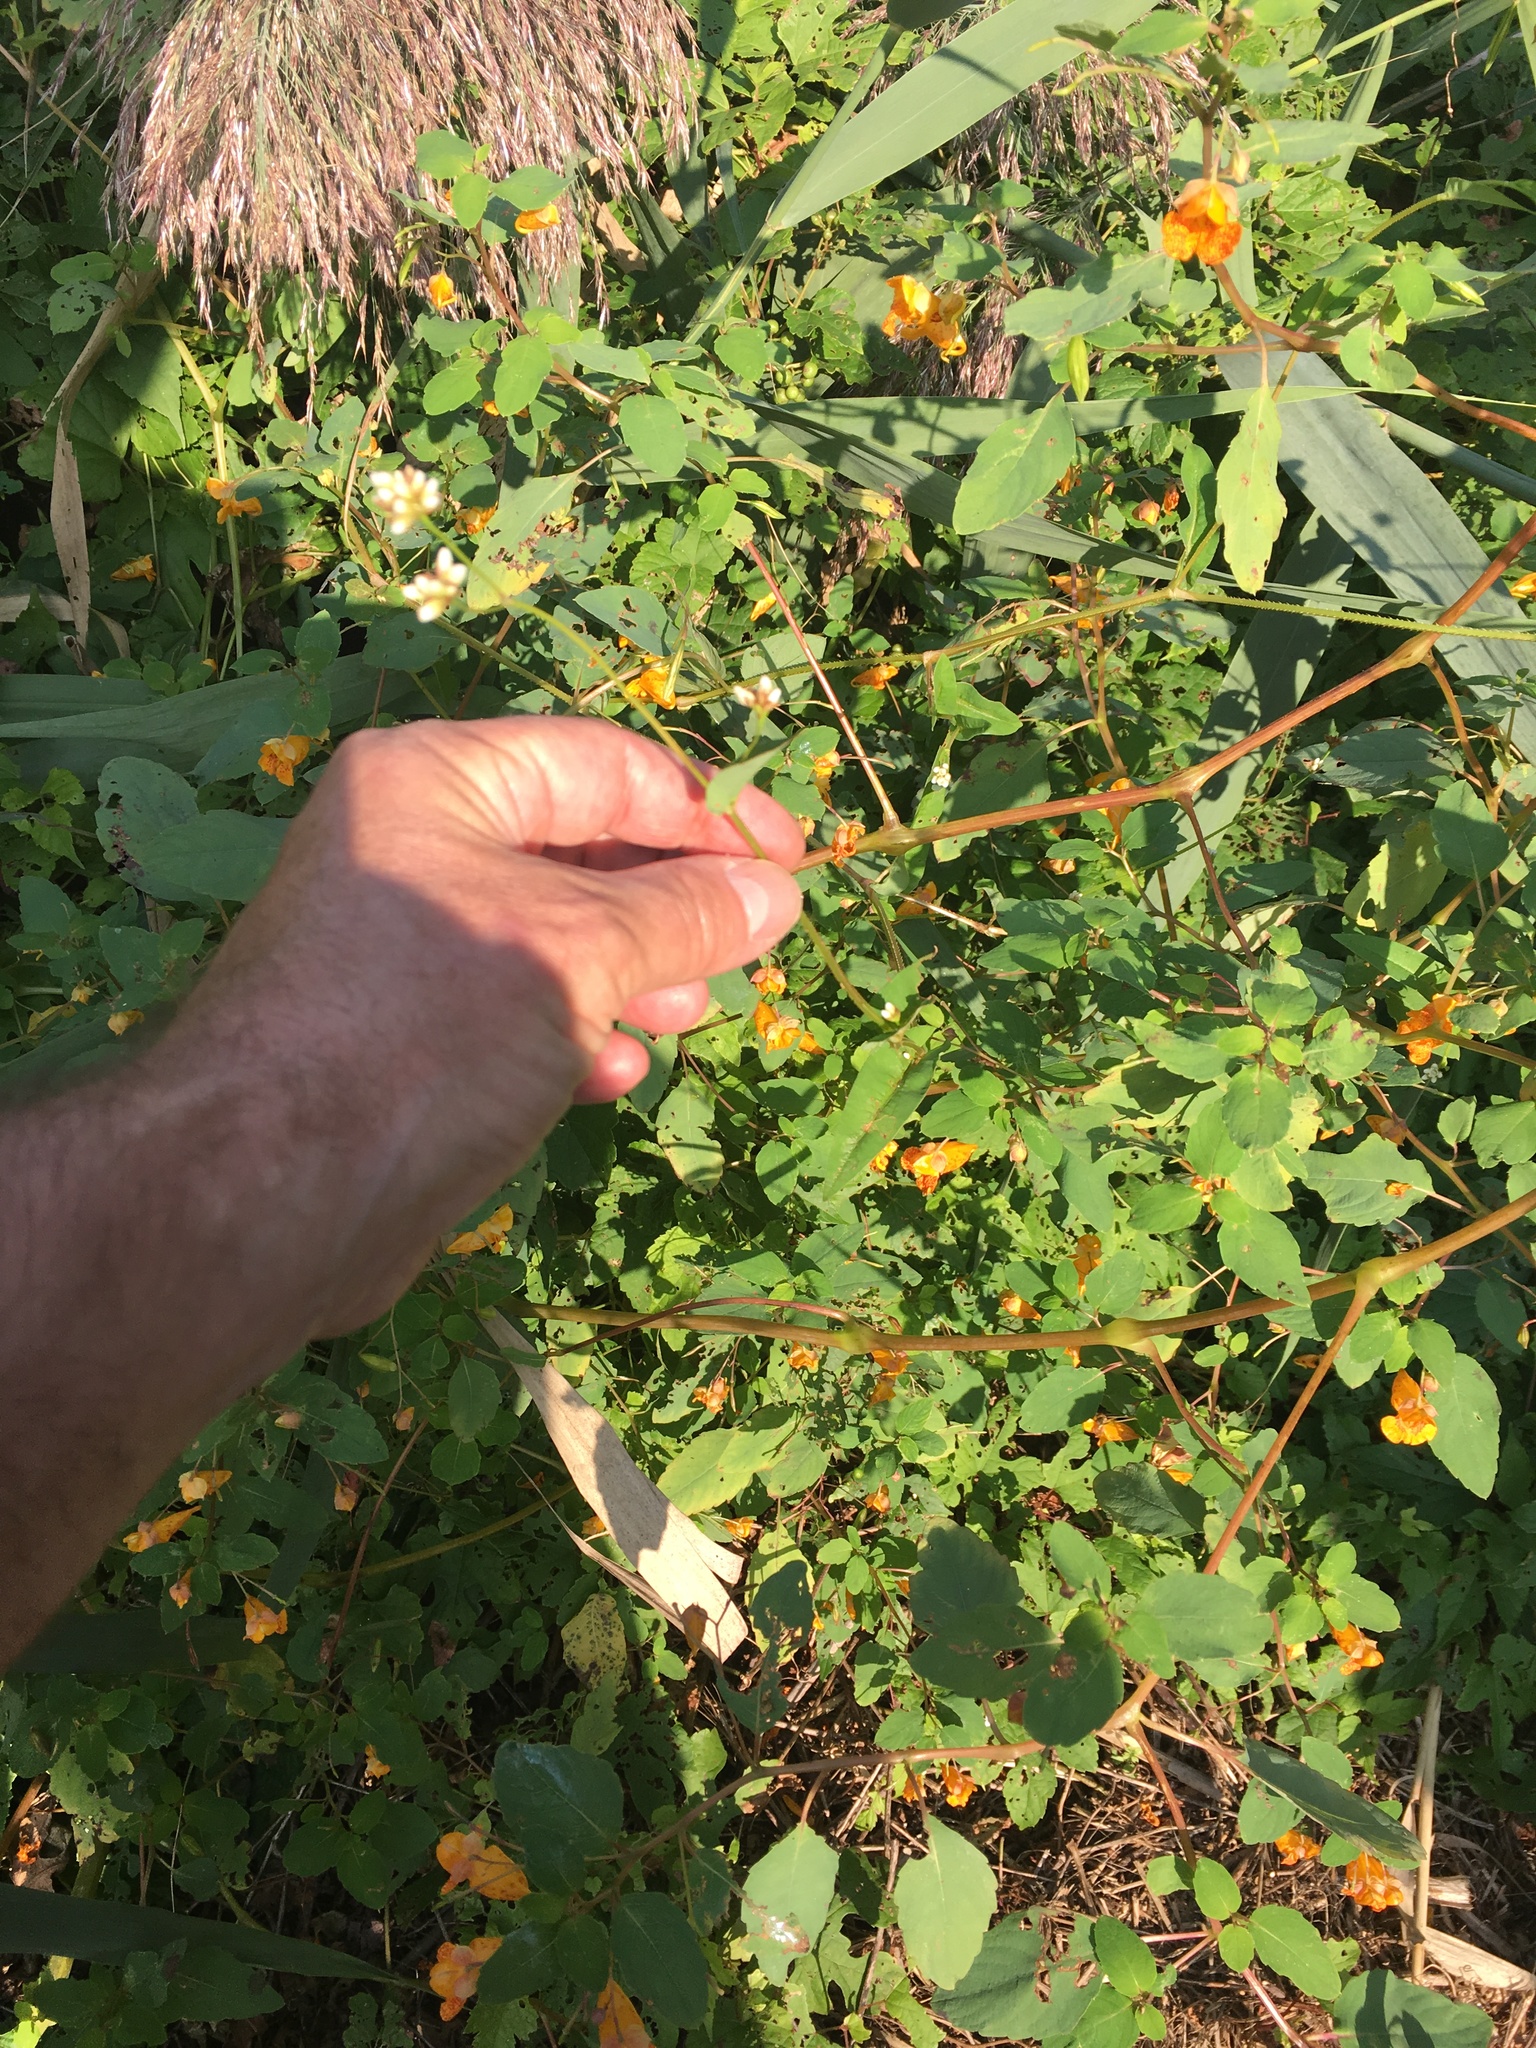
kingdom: Plantae
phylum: Tracheophyta
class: Magnoliopsida
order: Caryophyllales
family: Polygonaceae
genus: Persicaria
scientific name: Persicaria sagittata
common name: American tearthumb
